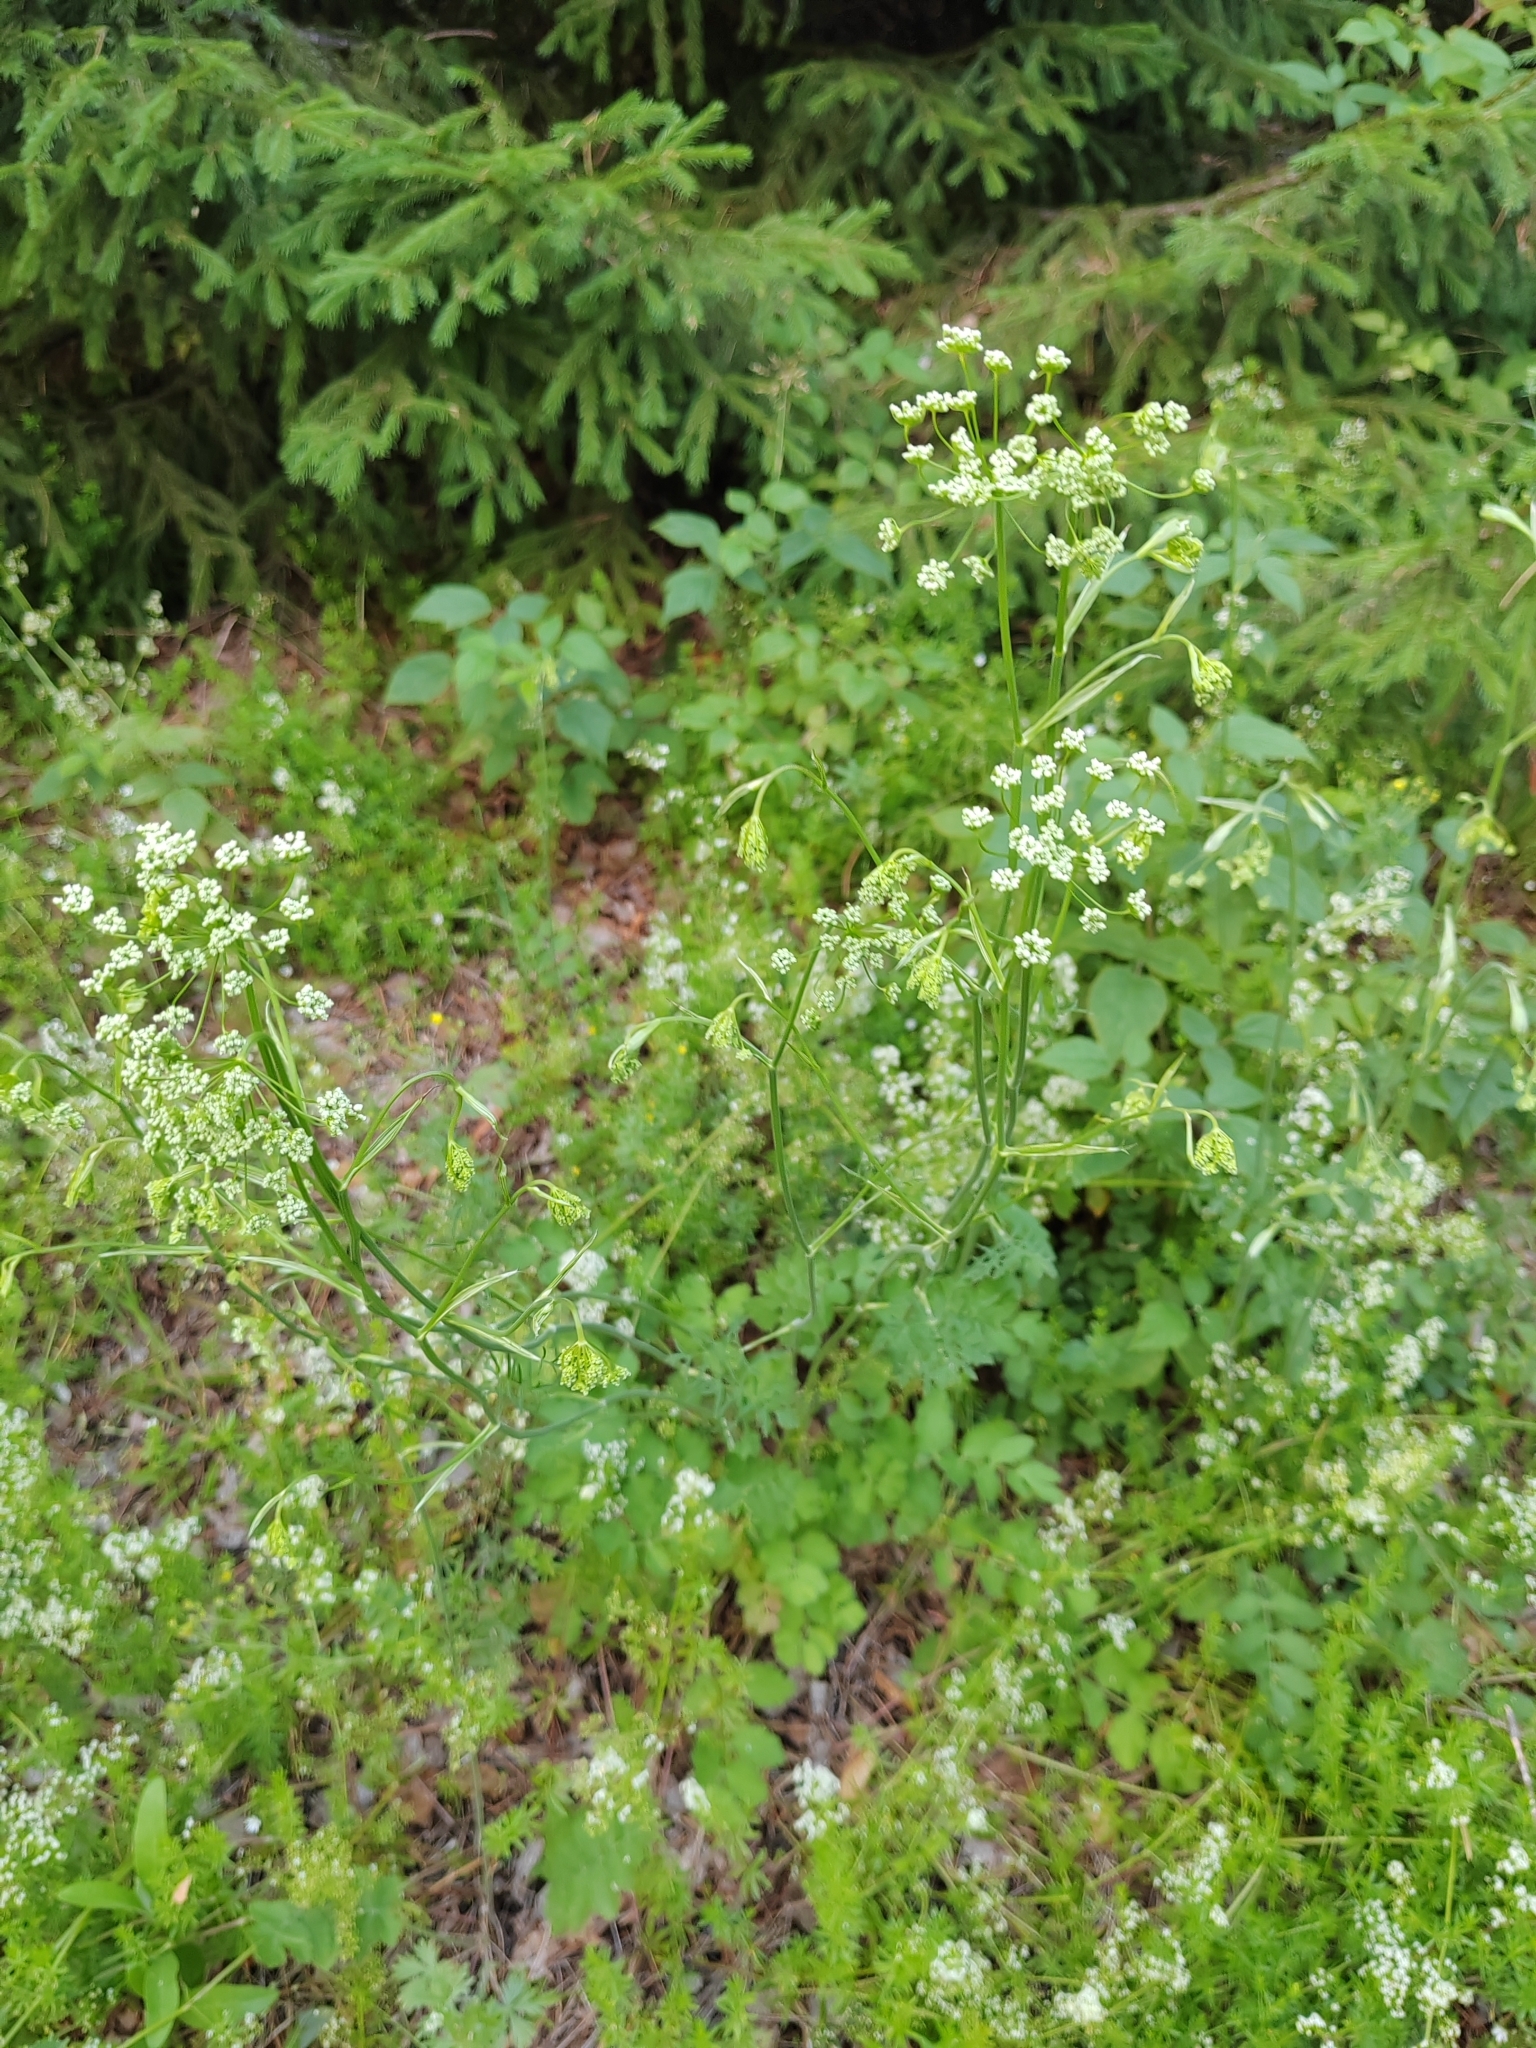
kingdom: Plantae
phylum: Tracheophyta
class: Magnoliopsida
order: Apiales
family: Apiaceae
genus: Pimpinella
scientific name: Pimpinella saxifraga
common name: Burnet-saxifrage
